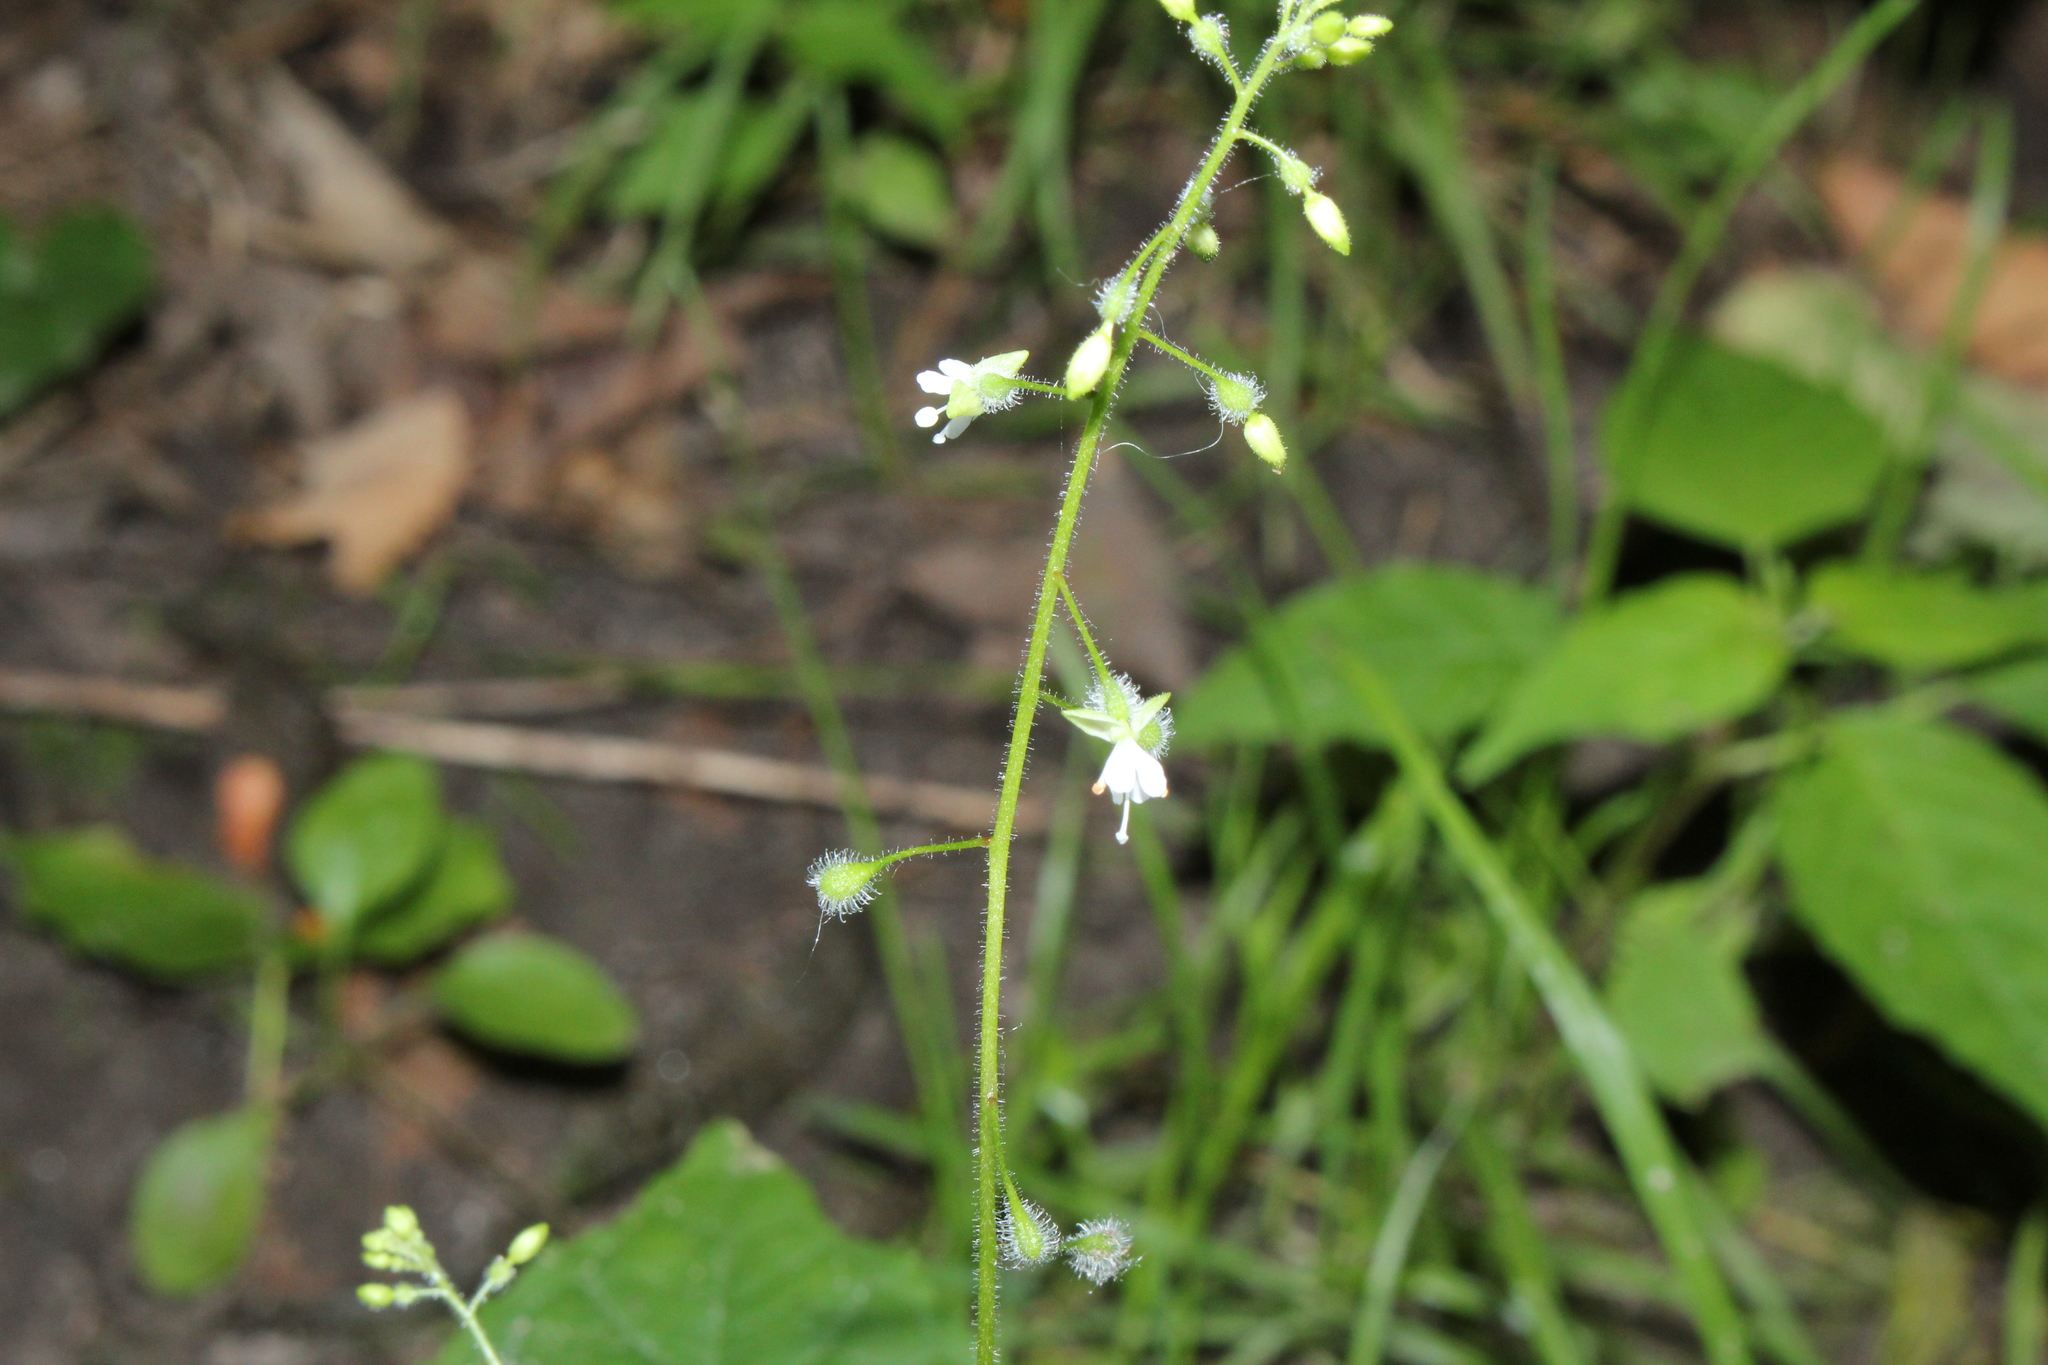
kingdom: Plantae
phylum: Tracheophyta
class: Magnoliopsida
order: Myrtales
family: Onagraceae
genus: Circaea
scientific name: Circaea canadensis
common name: Broad-leaved enchanter's nightshade
